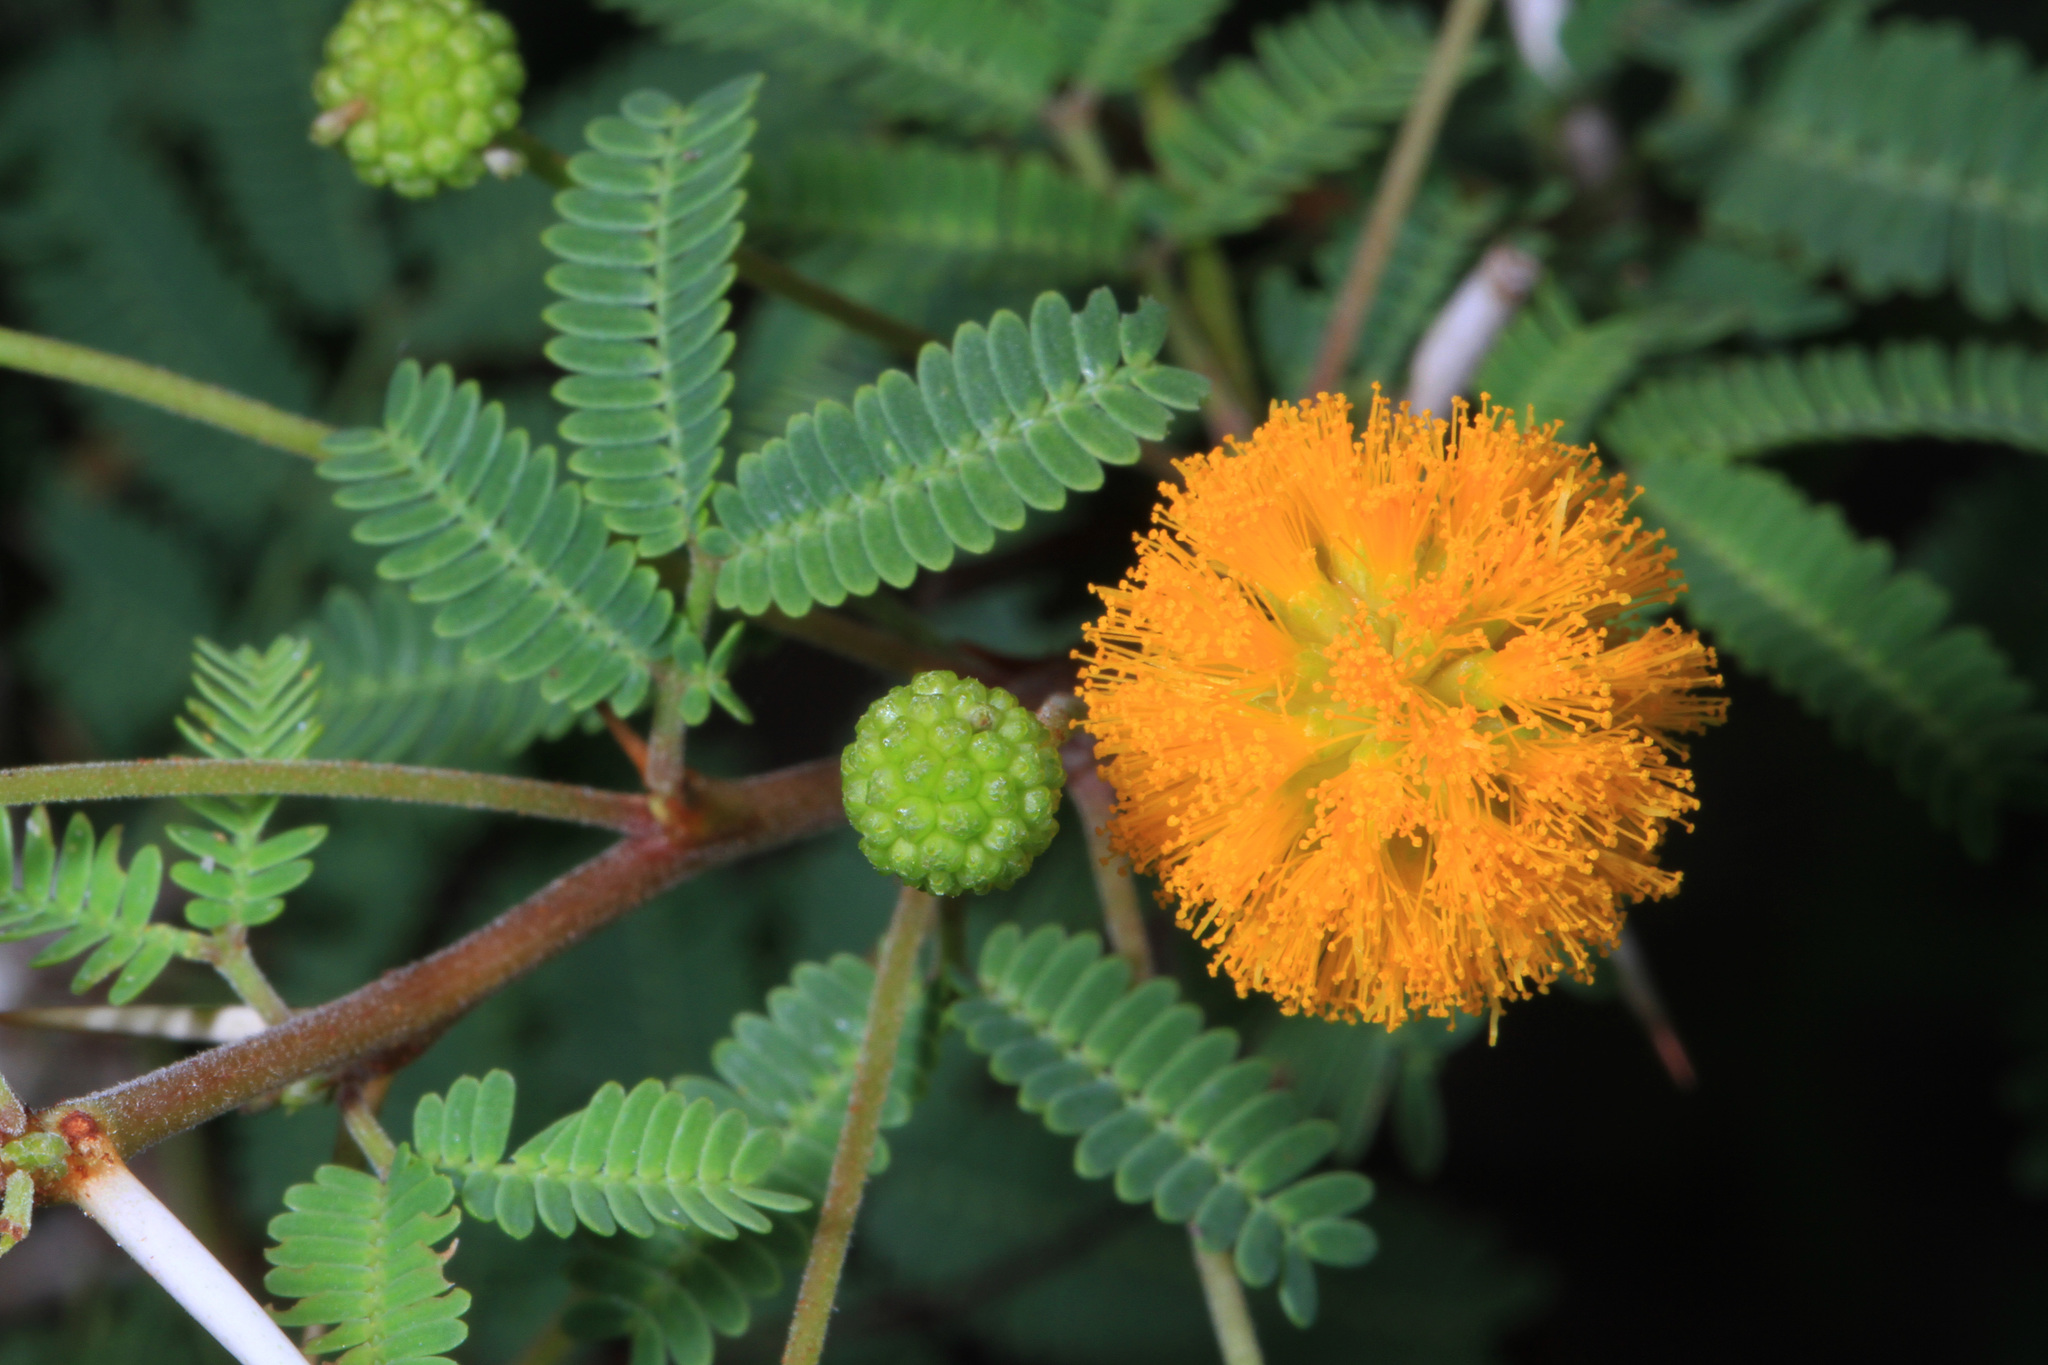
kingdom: Plantae
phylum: Tracheophyta
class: Magnoliopsida
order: Fabales
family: Fabaceae
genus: Vachellia
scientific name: Vachellia farnesiana
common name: Sweet acacia
